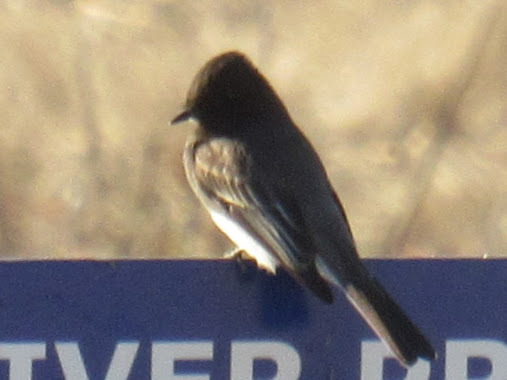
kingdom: Animalia
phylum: Chordata
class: Aves
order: Passeriformes
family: Tyrannidae
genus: Sayornis
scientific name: Sayornis nigricans
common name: Black phoebe
